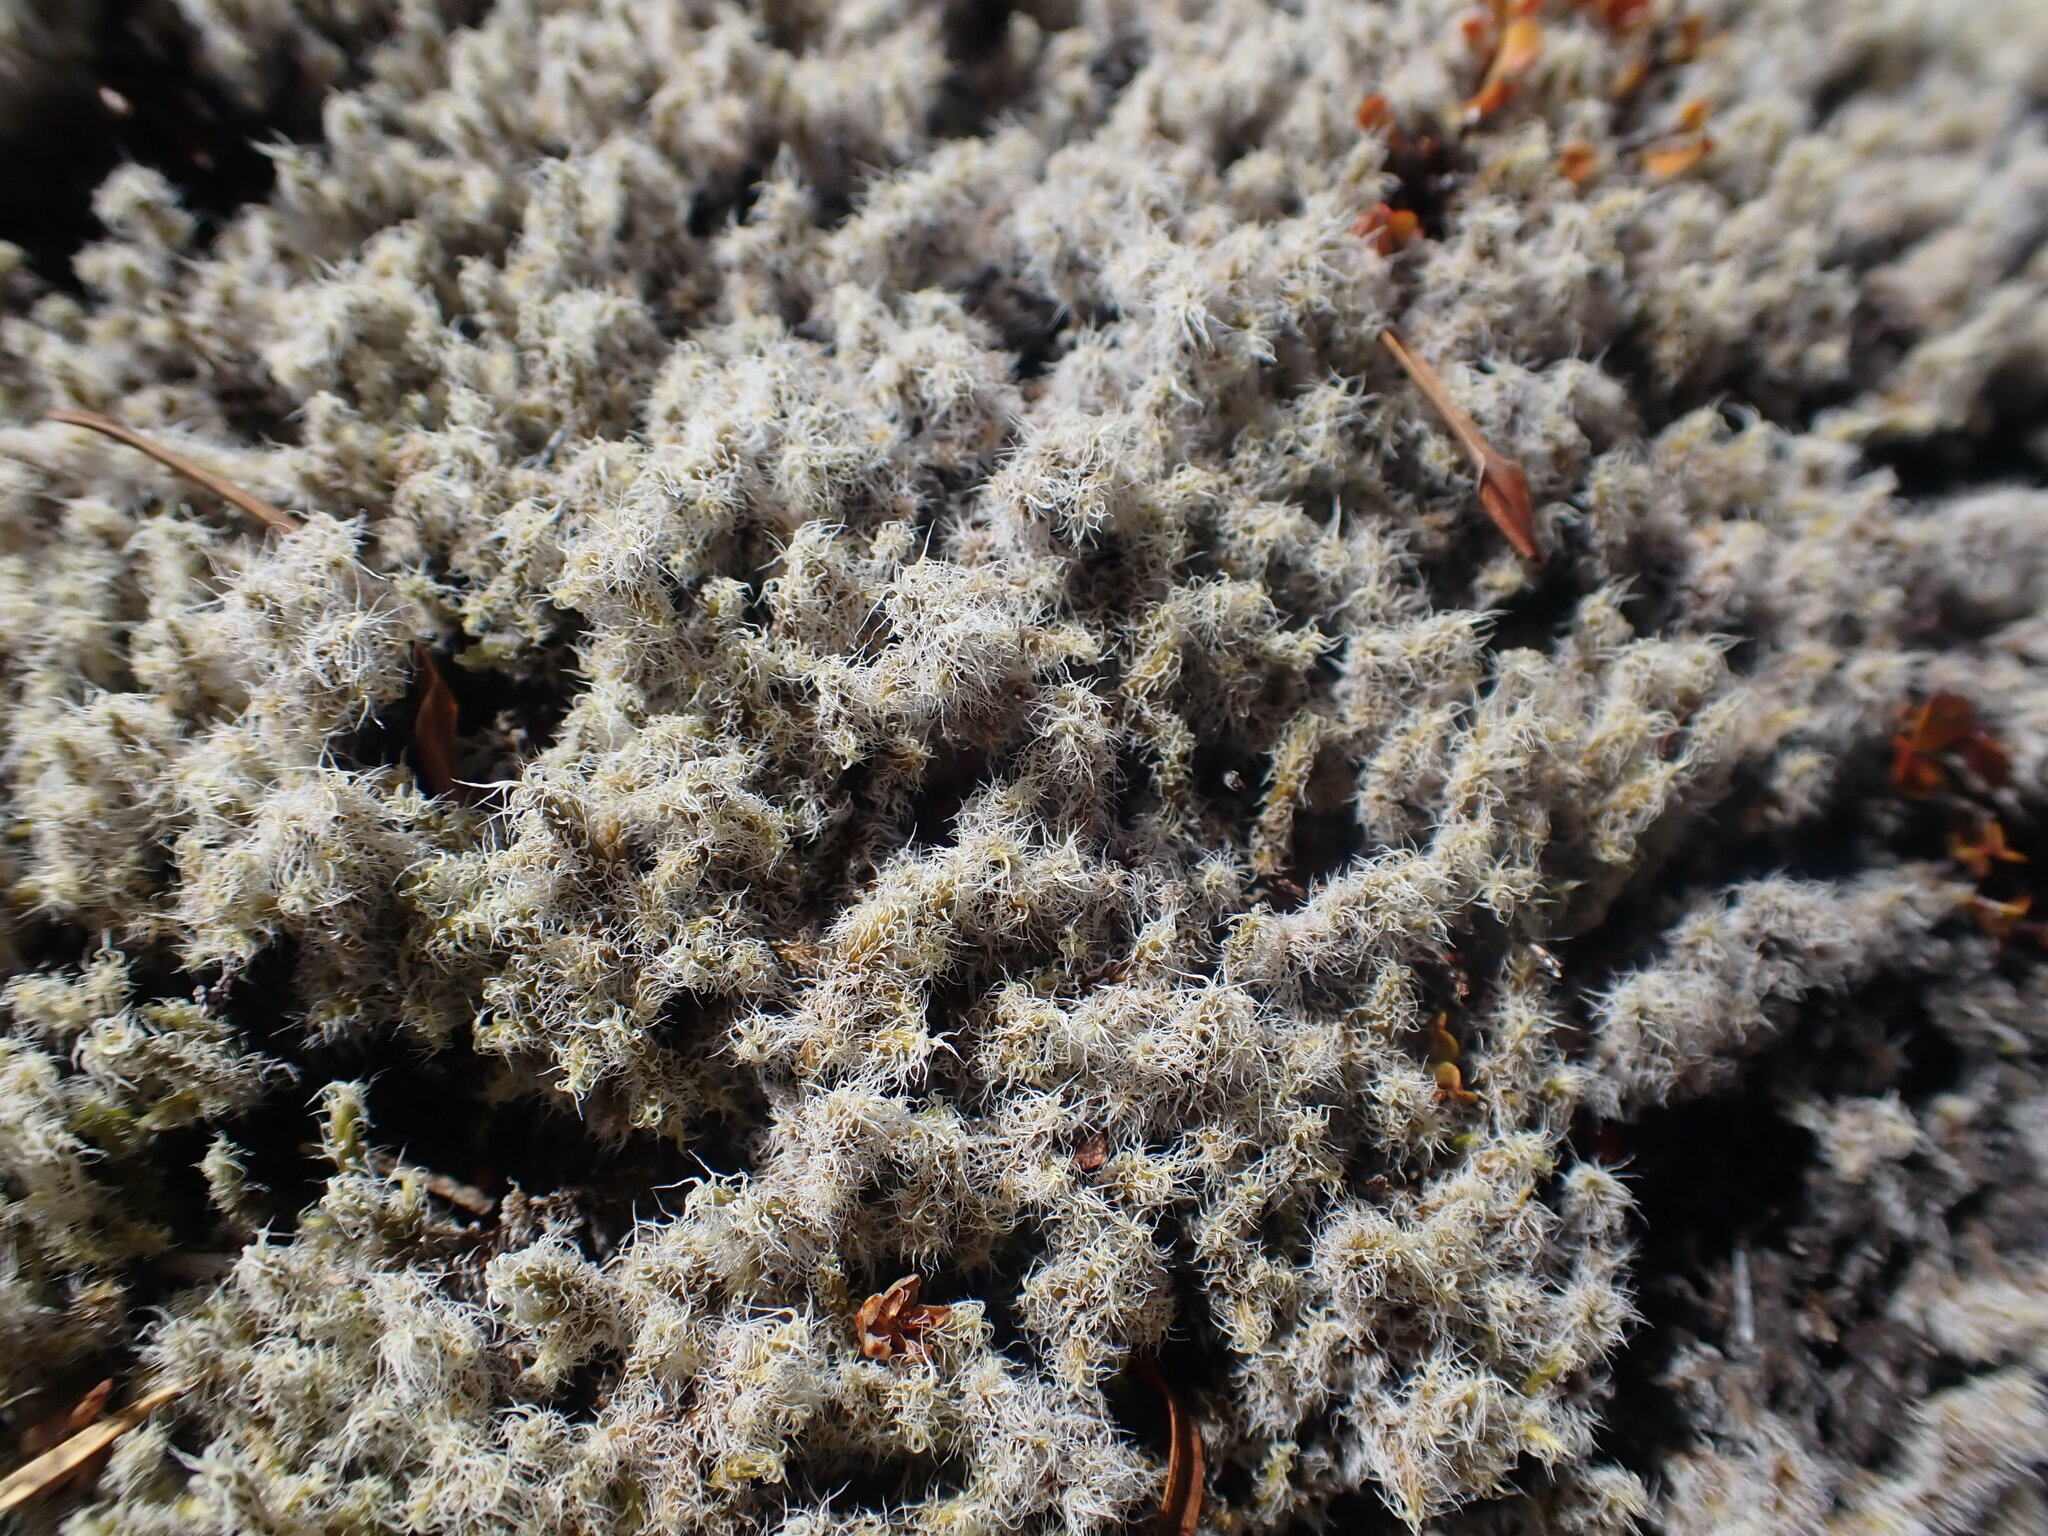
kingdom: Plantae
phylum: Bryophyta
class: Bryopsida
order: Grimmiales
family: Grimmiaceae
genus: Racomitrium
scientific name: Racomitrium lanuginosum
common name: Hoary rock moss
